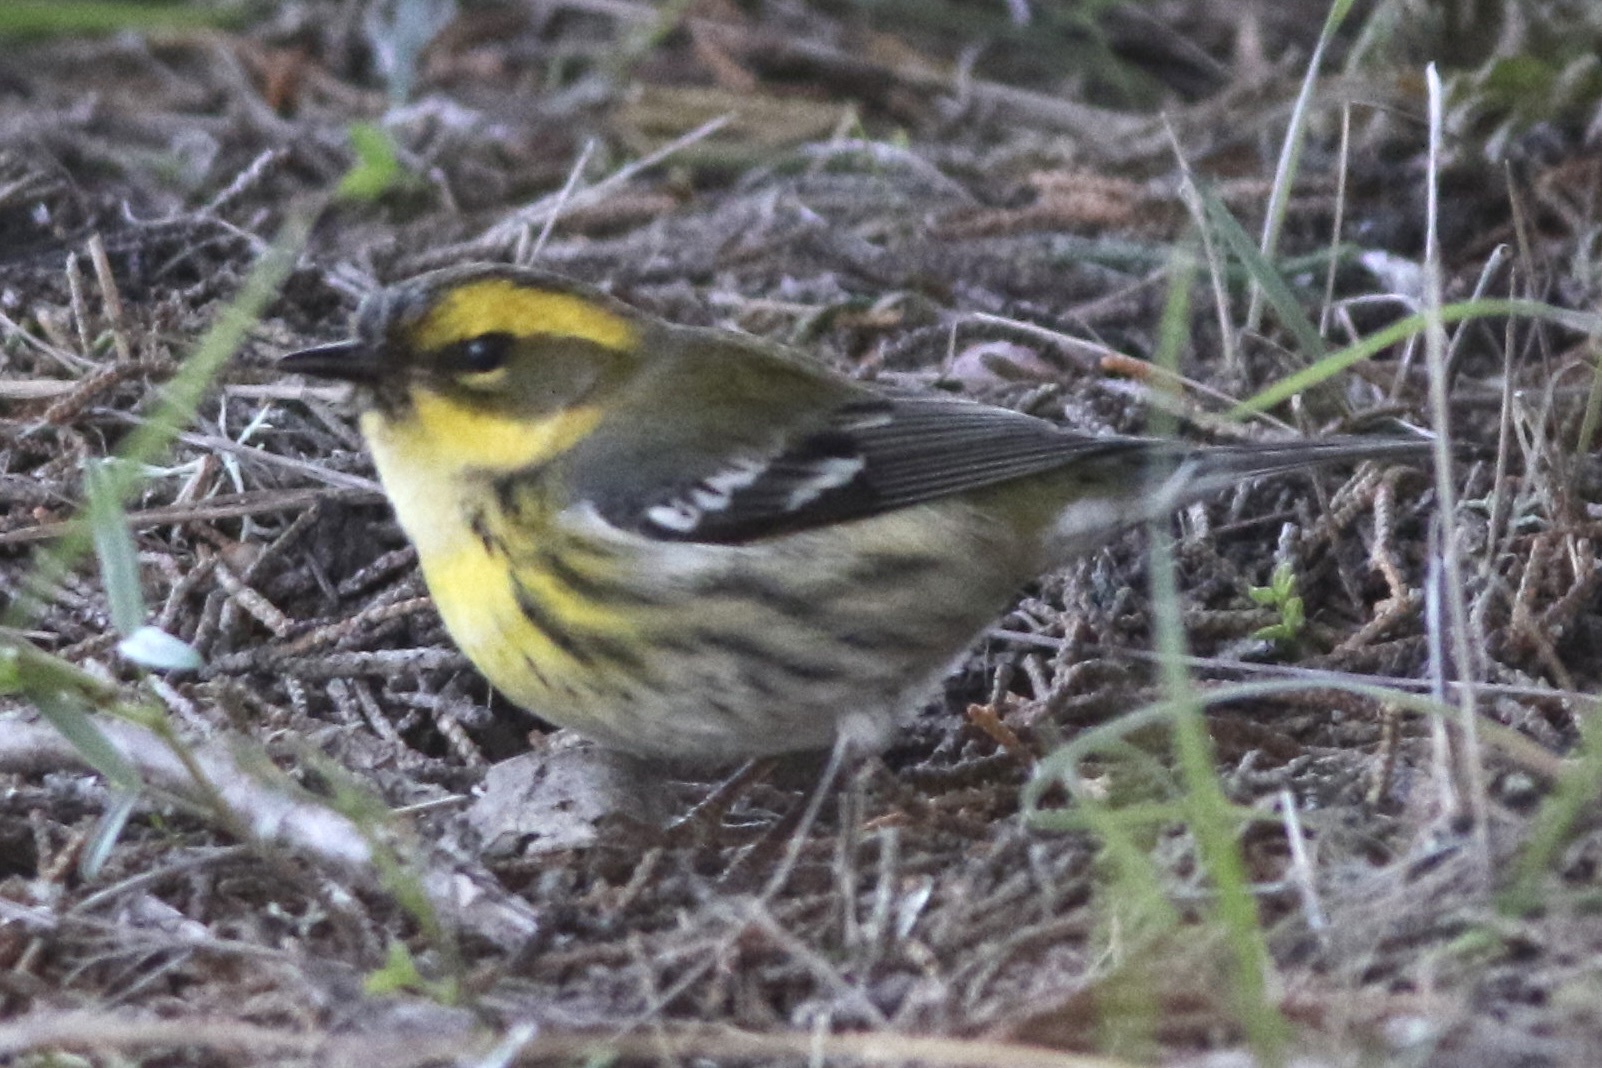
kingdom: Animalia
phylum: Chordata
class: Aves
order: Passeriformes
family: Parulidae
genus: Setophaga
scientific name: Setophaga townsendi
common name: Townsend's warbler
